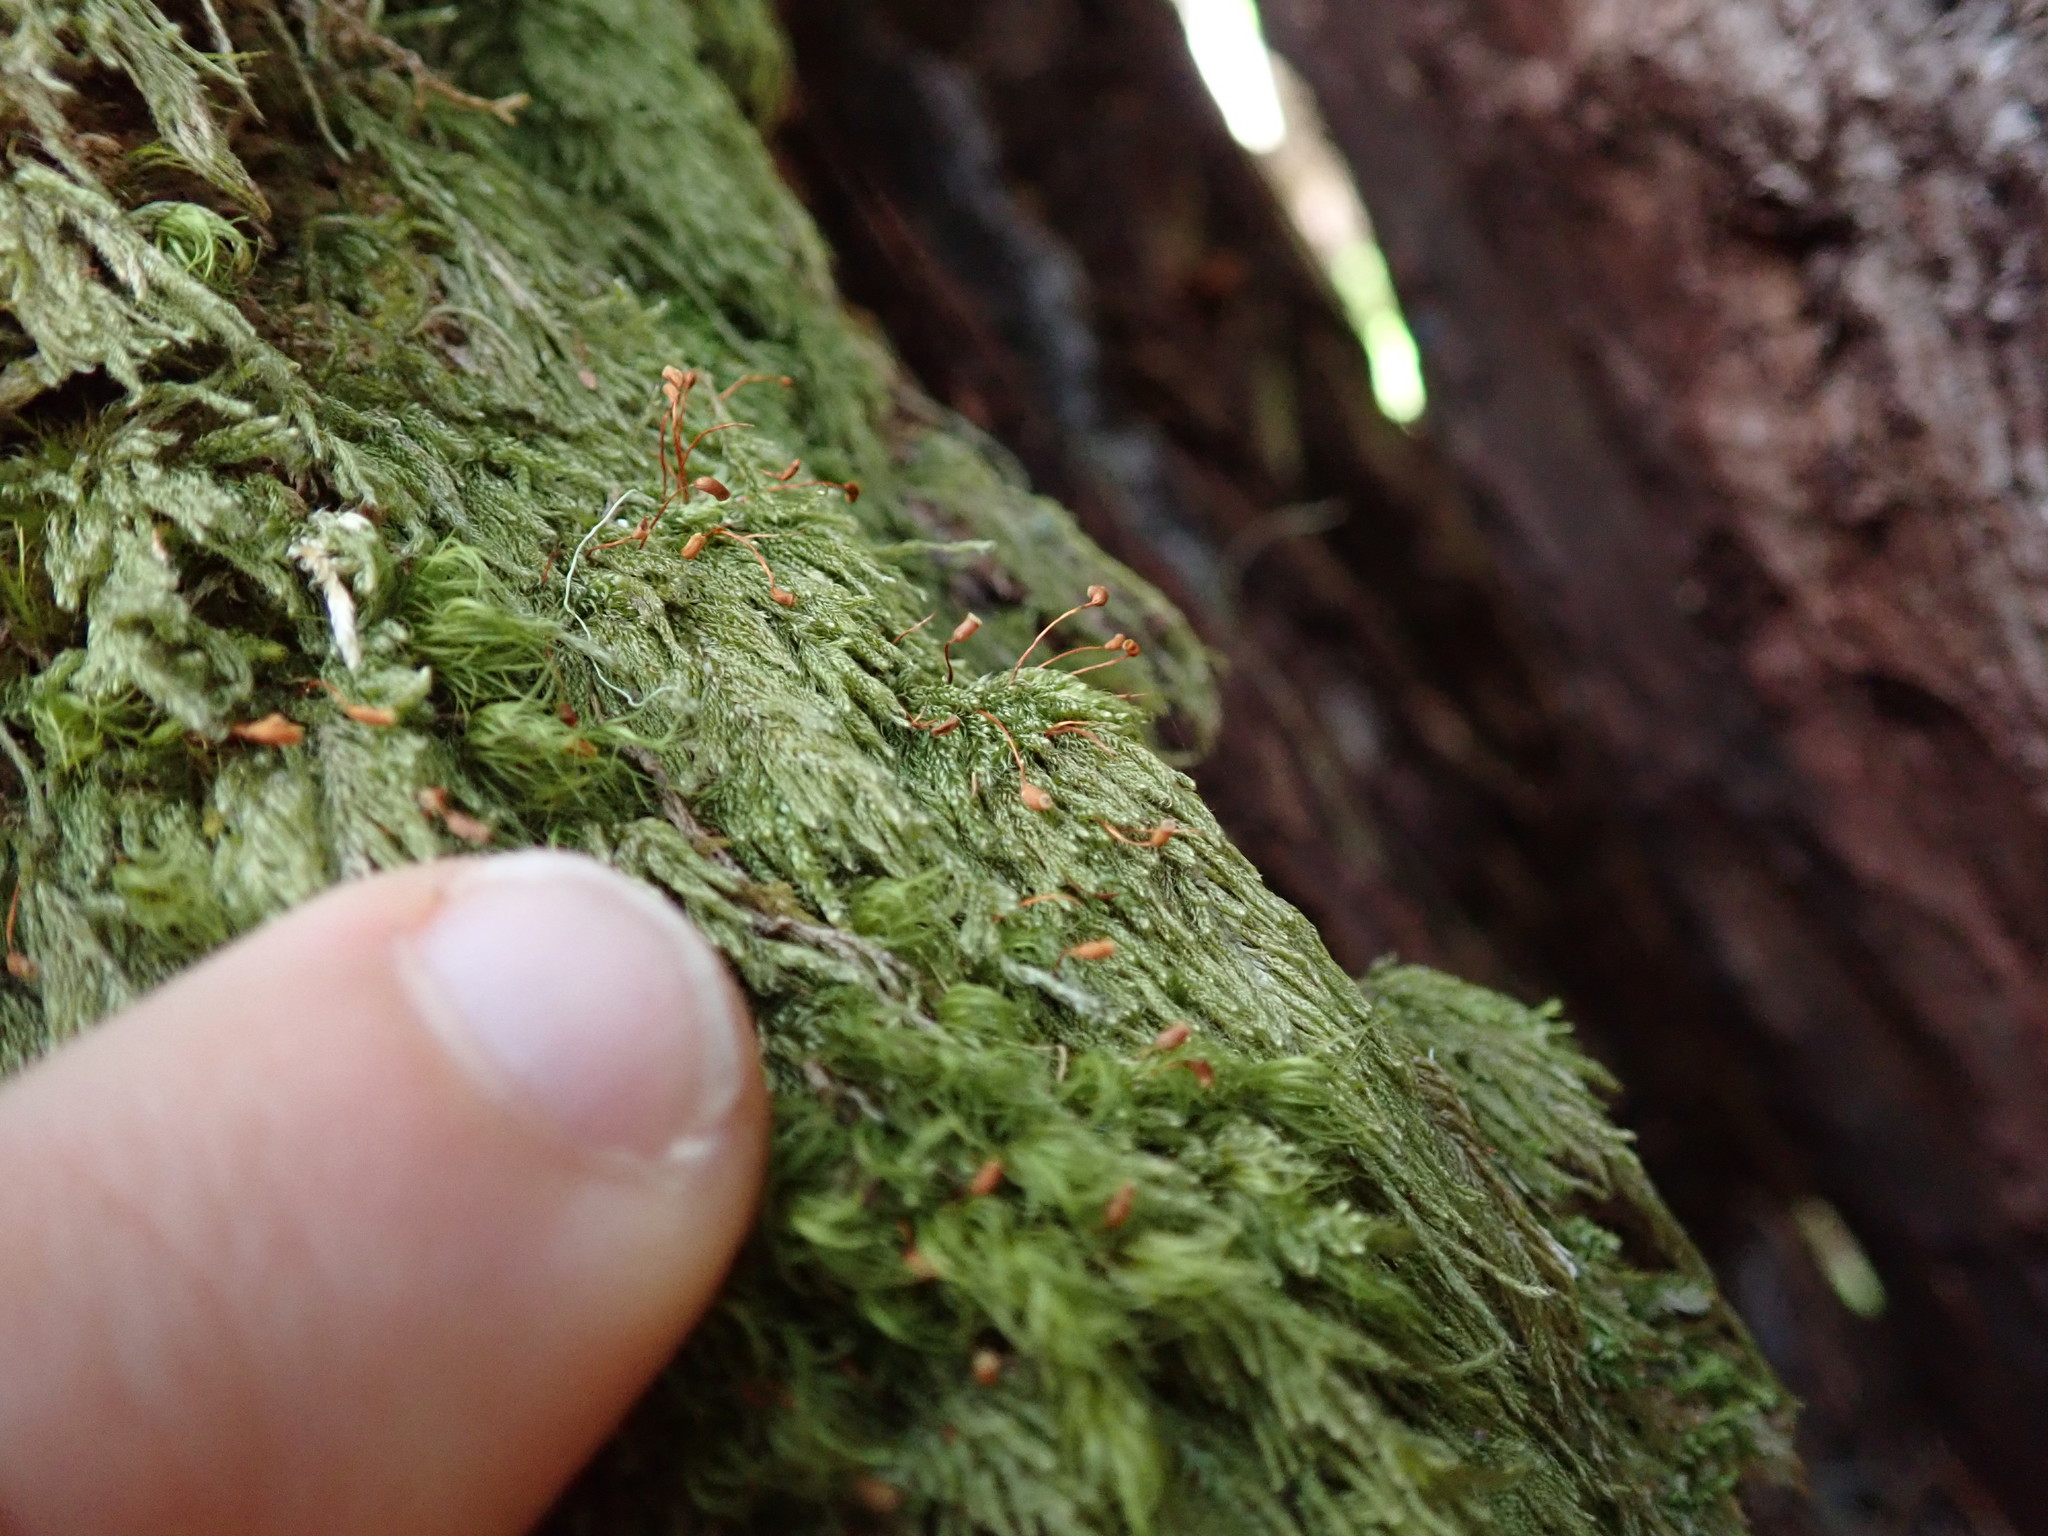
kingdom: Plantae
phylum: Bryophyta
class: Bryopsida
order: Hypnales
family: Pylaisiadelphaceae
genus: Trochophyllohypnum
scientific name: Trochophyllohypnum circinale
